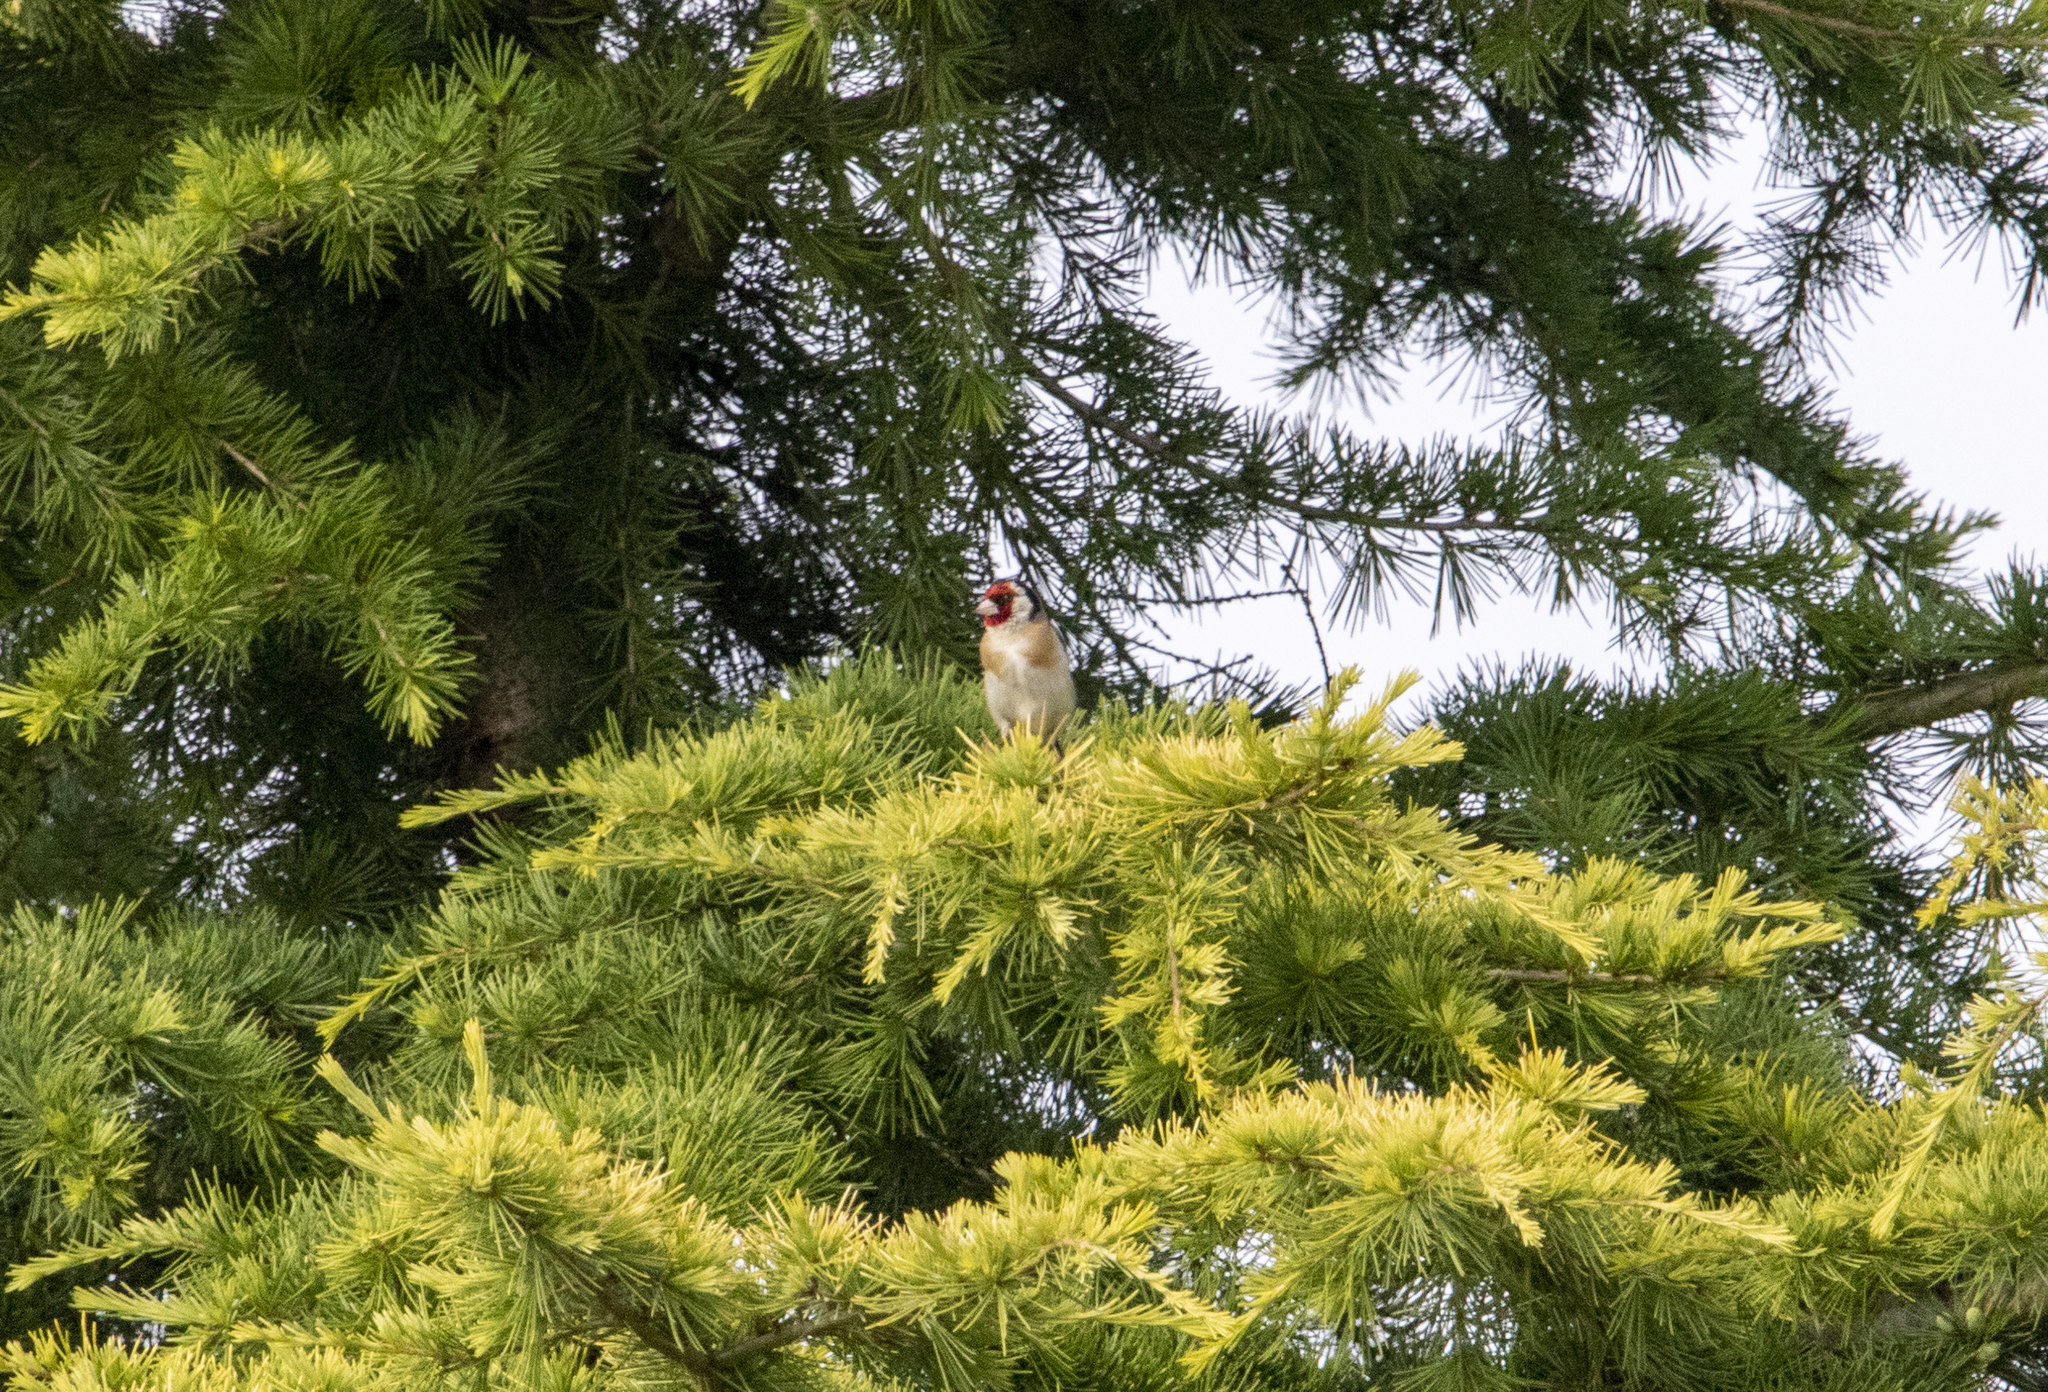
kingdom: Animalia
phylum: Chordata
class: Aves
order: Passeriformes
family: Fringillidae
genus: Carduelis
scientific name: Carduelis carduelis
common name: European goldfinch
